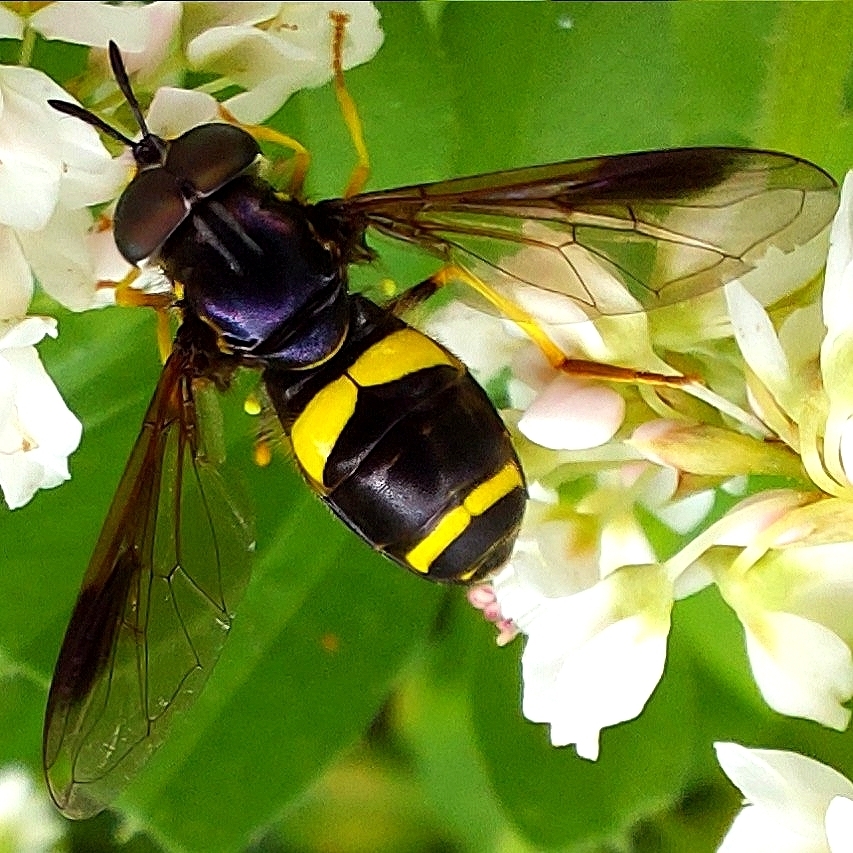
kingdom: Animalia
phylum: Arthropoda
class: Insecta
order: Diptera
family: Syrphidae
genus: Chrysotoxum
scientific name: Chrysotoxum bicincta
